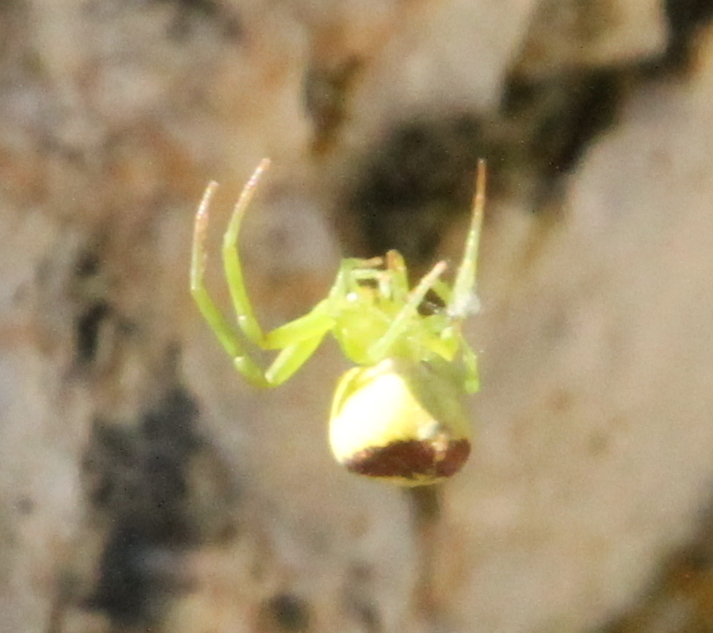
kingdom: Animalia
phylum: Arthropoda
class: Arachnida
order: Araneae
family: Thomisidae
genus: Ebrechtella
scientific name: Ebrechtella tricuspidata
